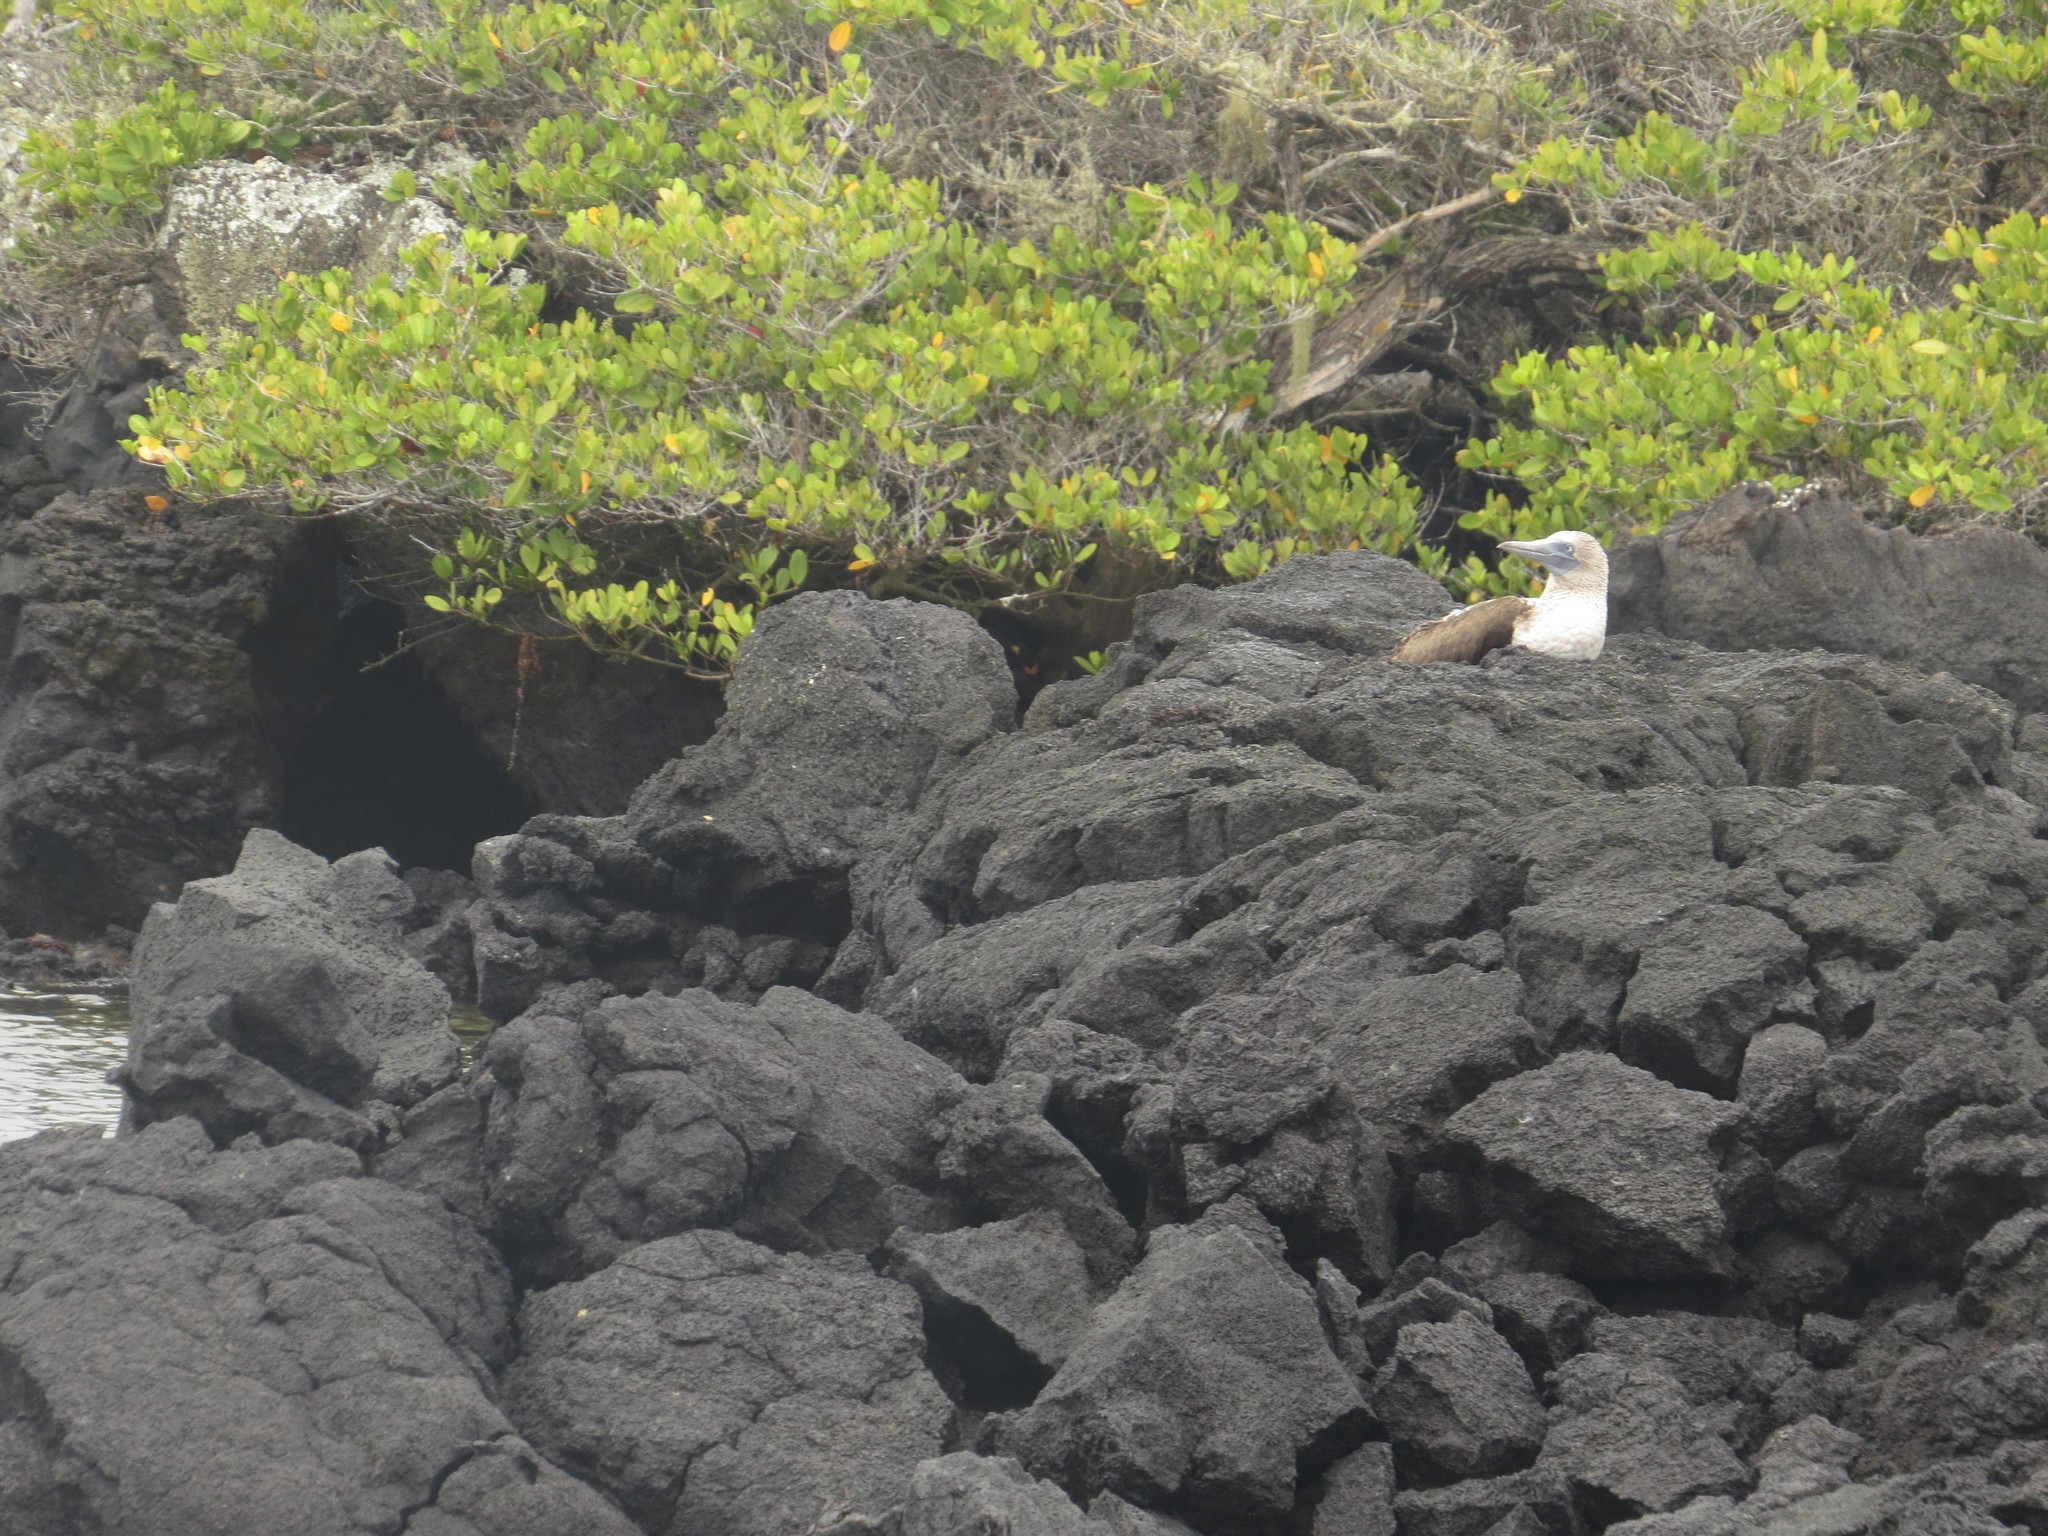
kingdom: Animalia
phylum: Chordata
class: Aves
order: Suliformes
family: Sulidae
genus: Sula
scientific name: Sula nebouxii
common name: Blue-footed booby
